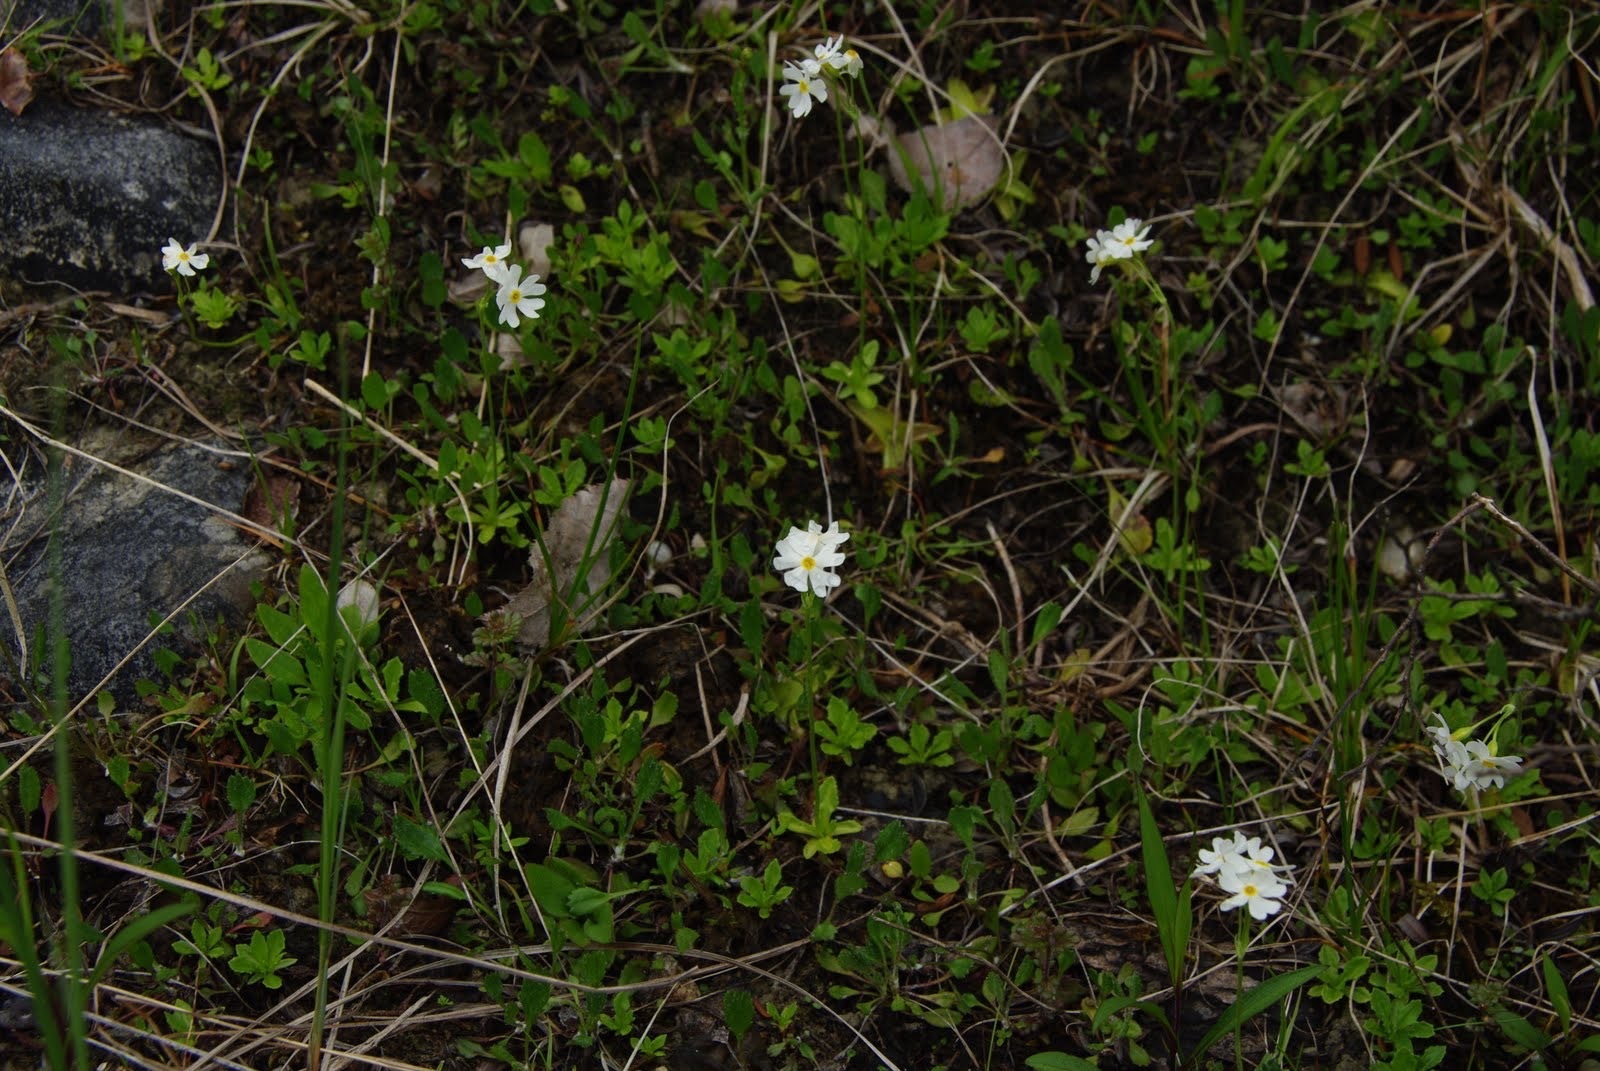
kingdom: Plantae
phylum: Tracheophyta
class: Magnoliopsida
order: Ericales
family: Primulaceae
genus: Primula
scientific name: Primula mistassinica
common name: Bird's-eye primrose
